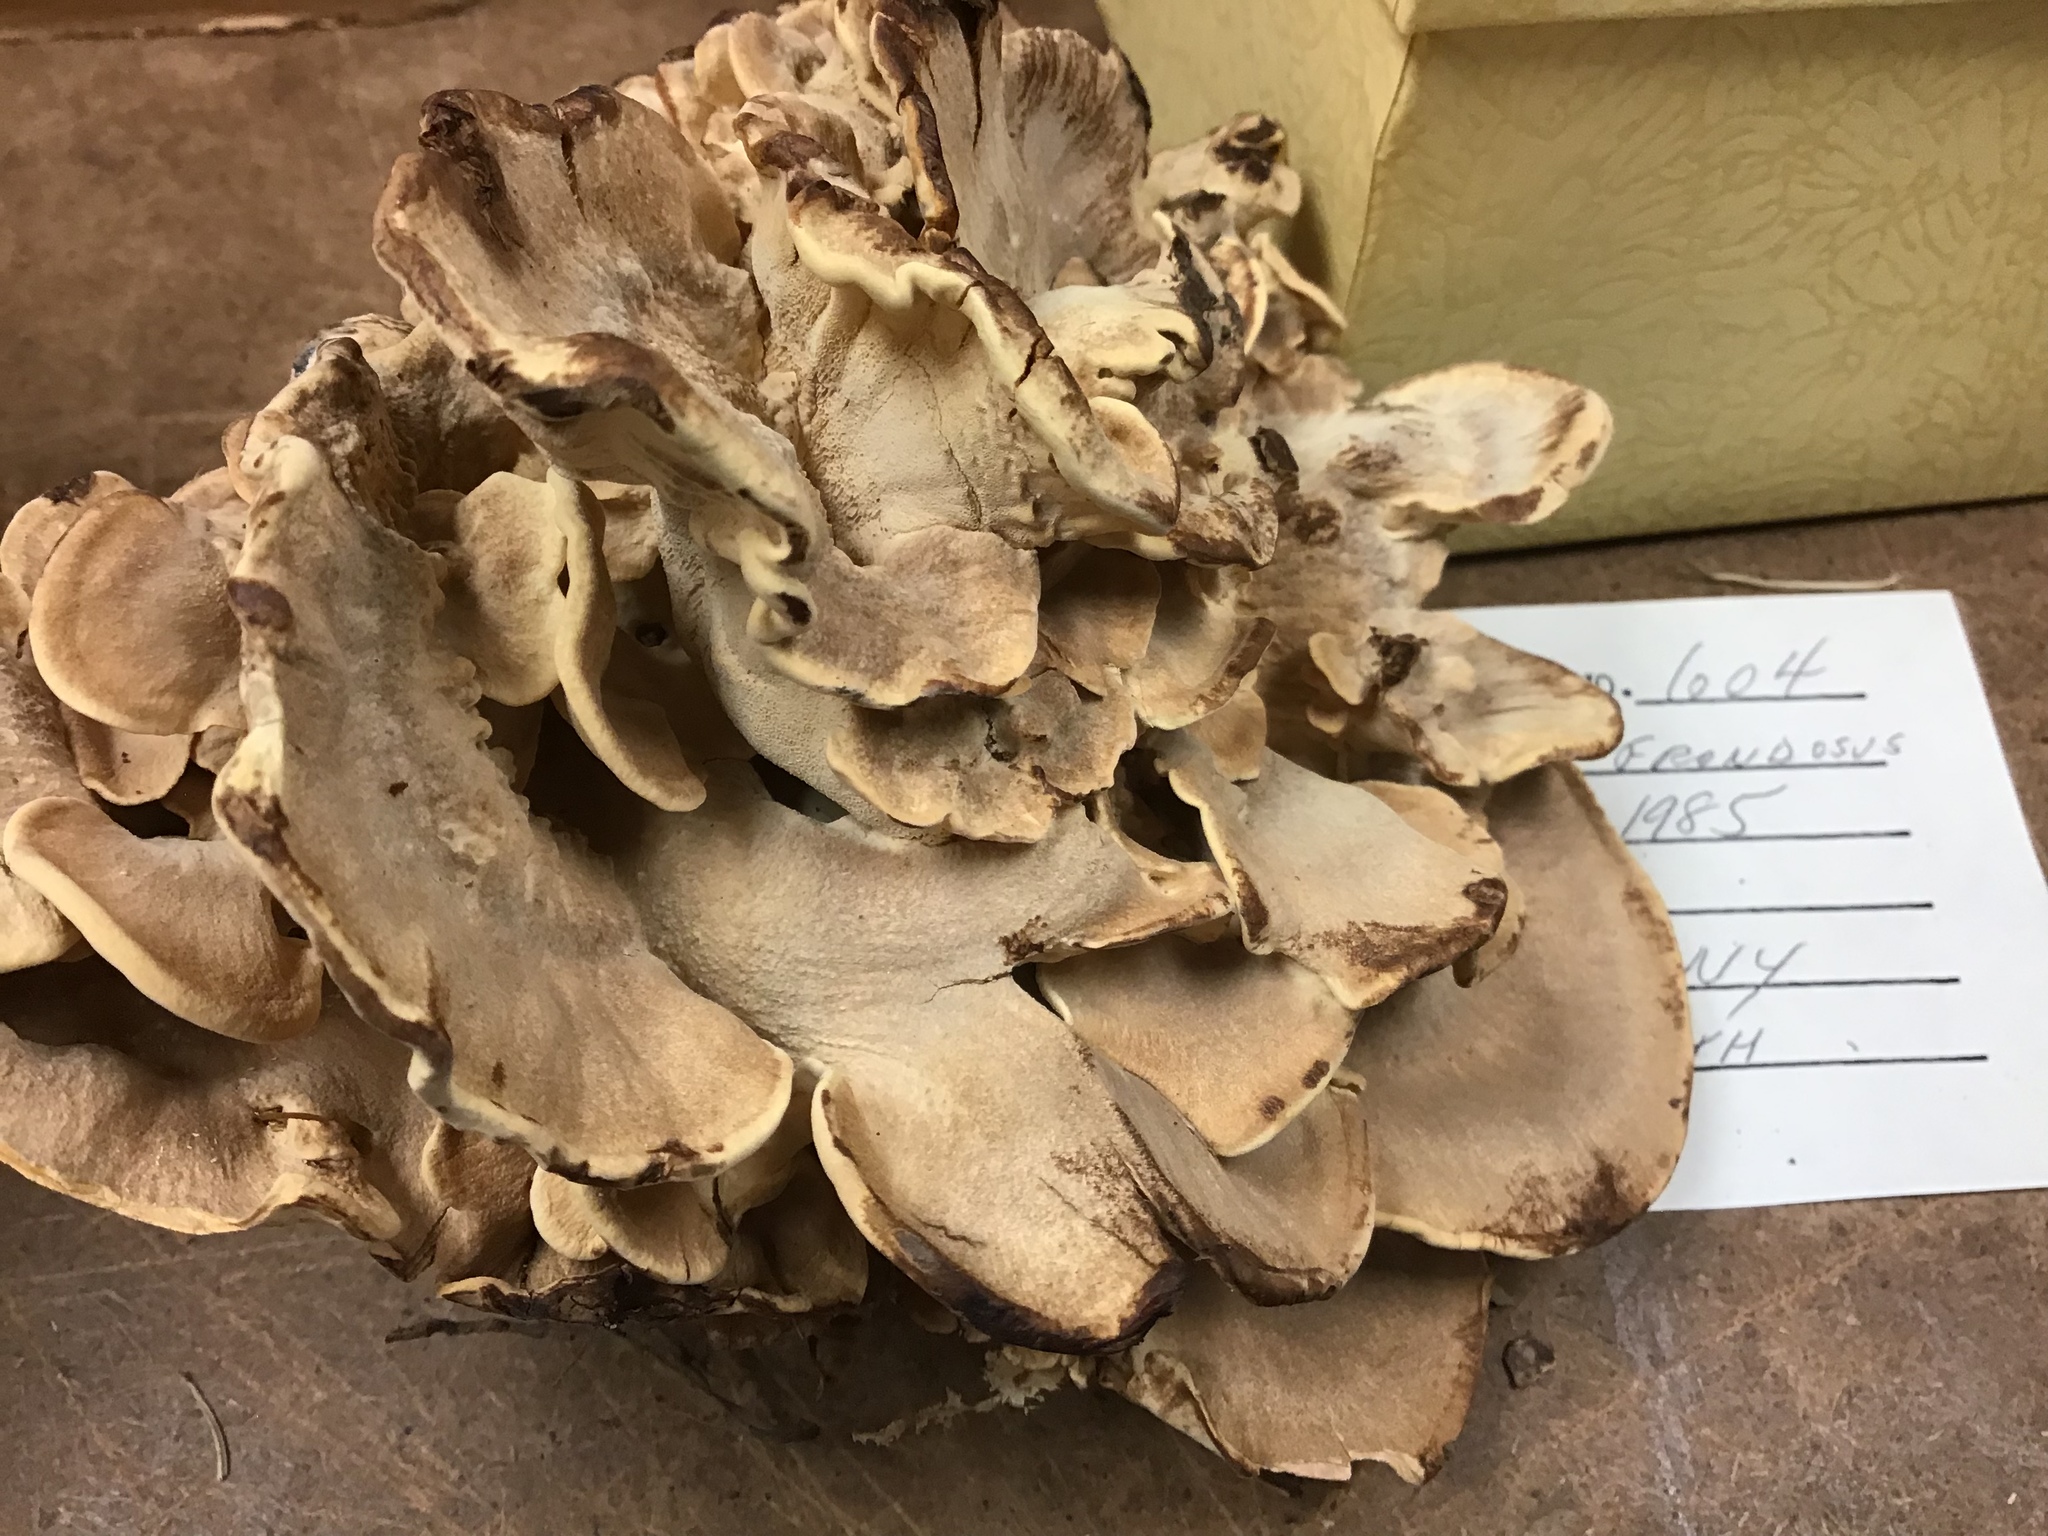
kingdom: Fungi
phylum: Basidiomycota
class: Agaricomycetes
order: Polyporales
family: Meripilaceae
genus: Meripilus
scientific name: Meripilus sumstinei
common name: Black-staining polypore
